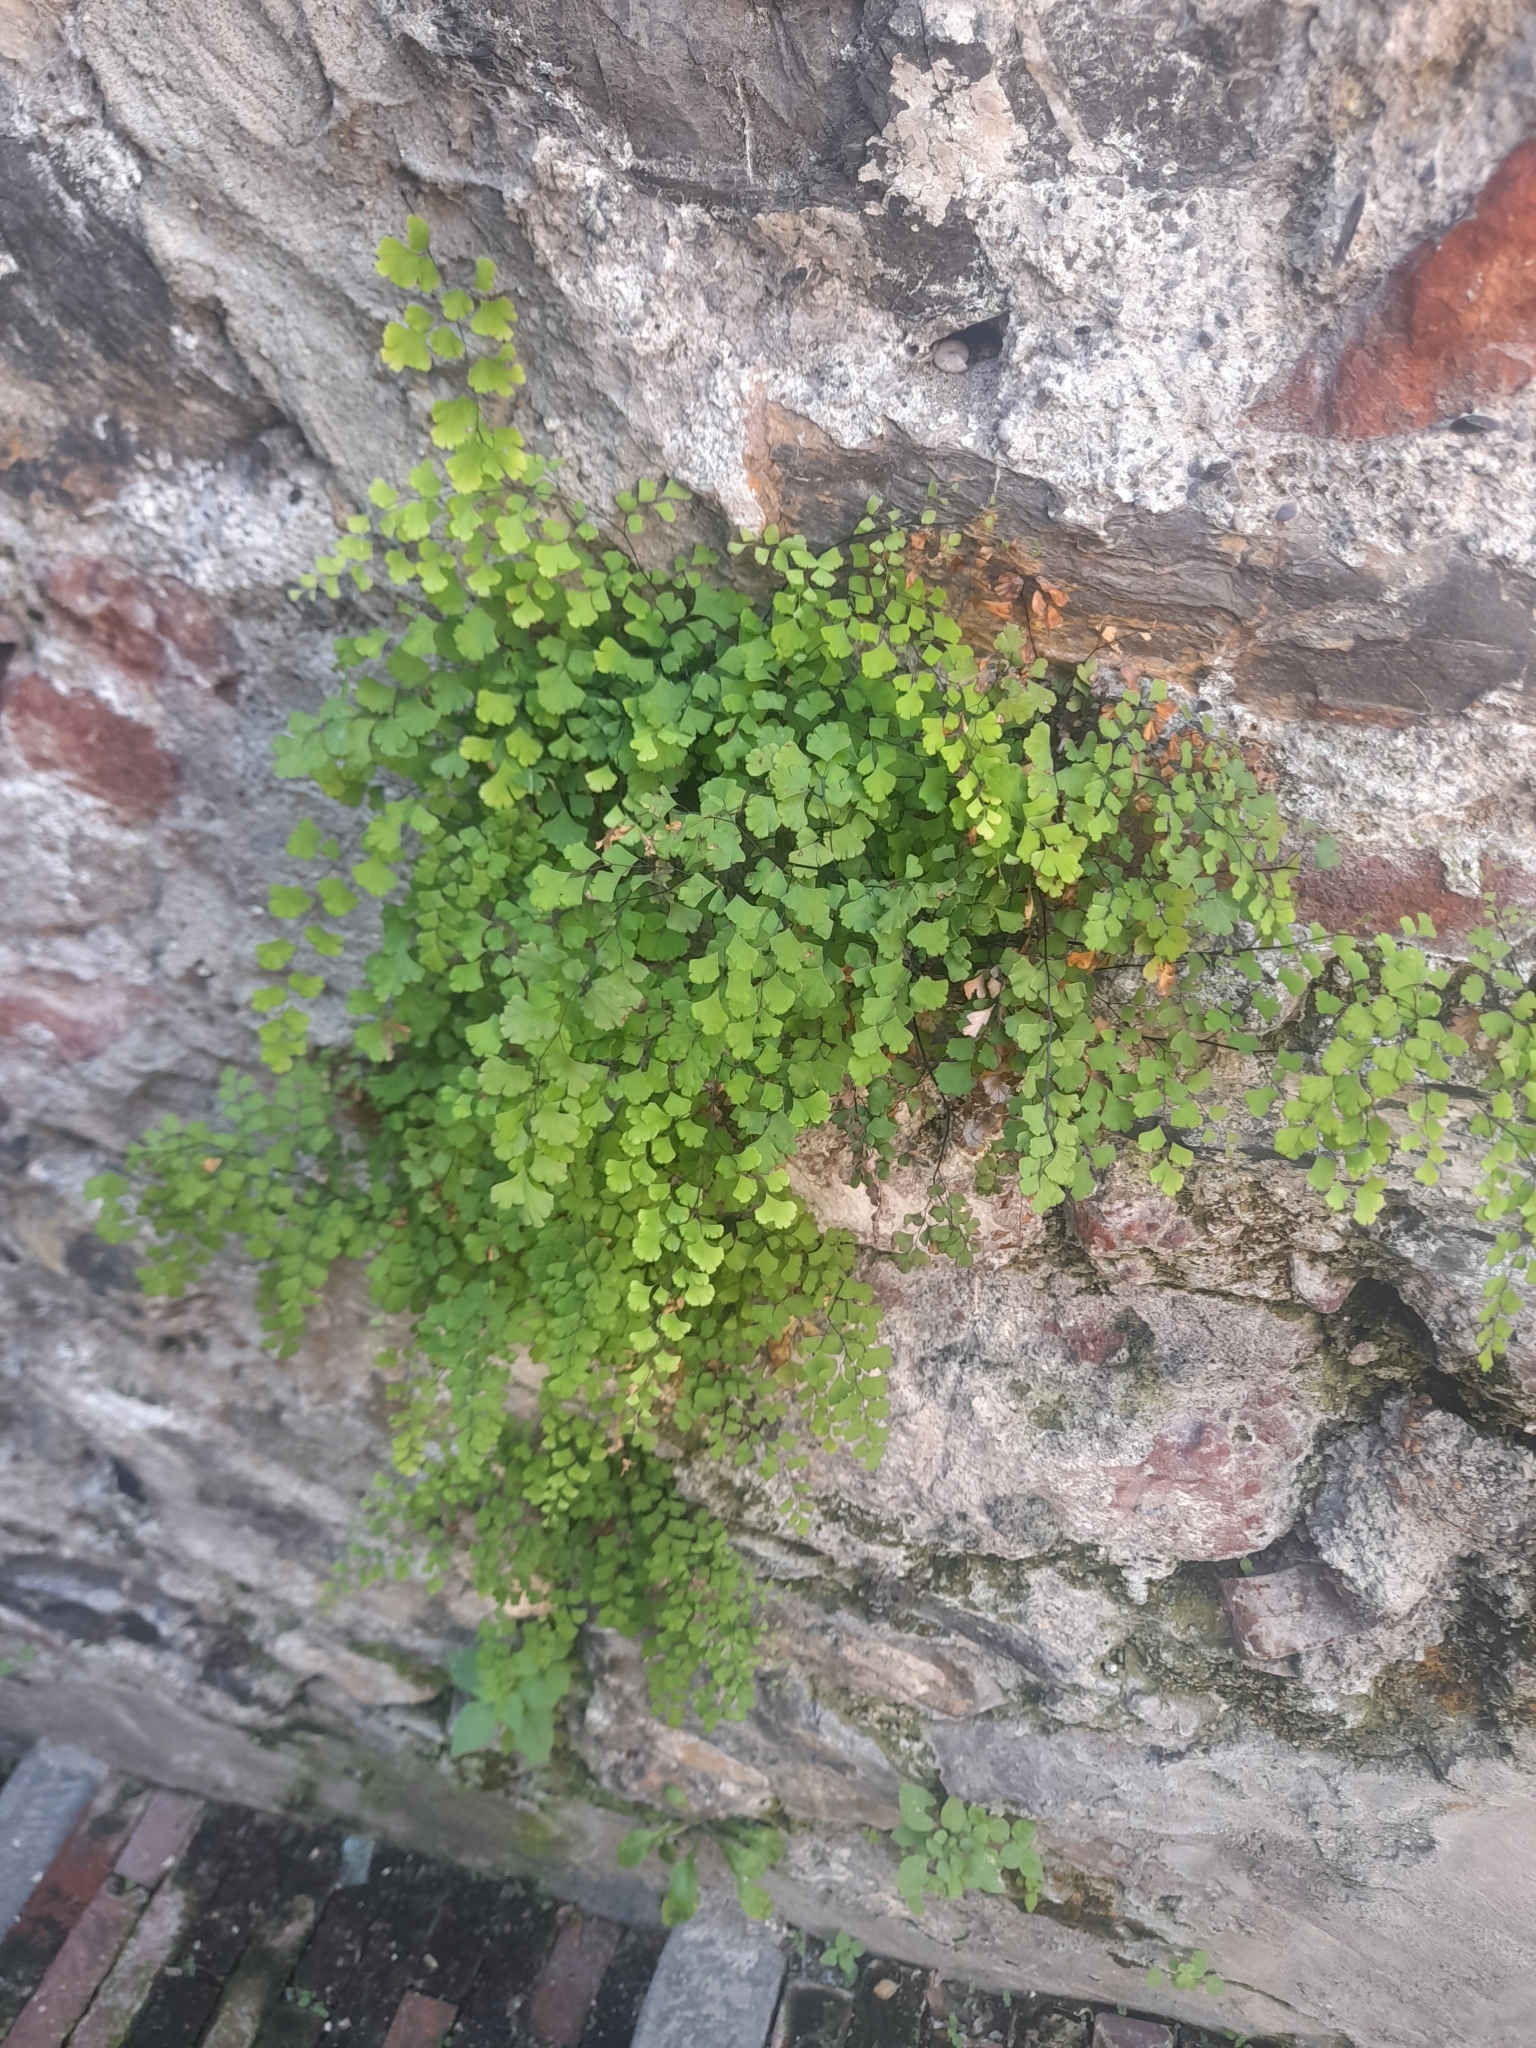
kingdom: Plantae
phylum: Tracheophyta
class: Polypodiopsida
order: Polypodiales
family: Pteridaceae
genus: Adiantum
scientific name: Adiantum capillus-veneris
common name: Maidenhair fern
